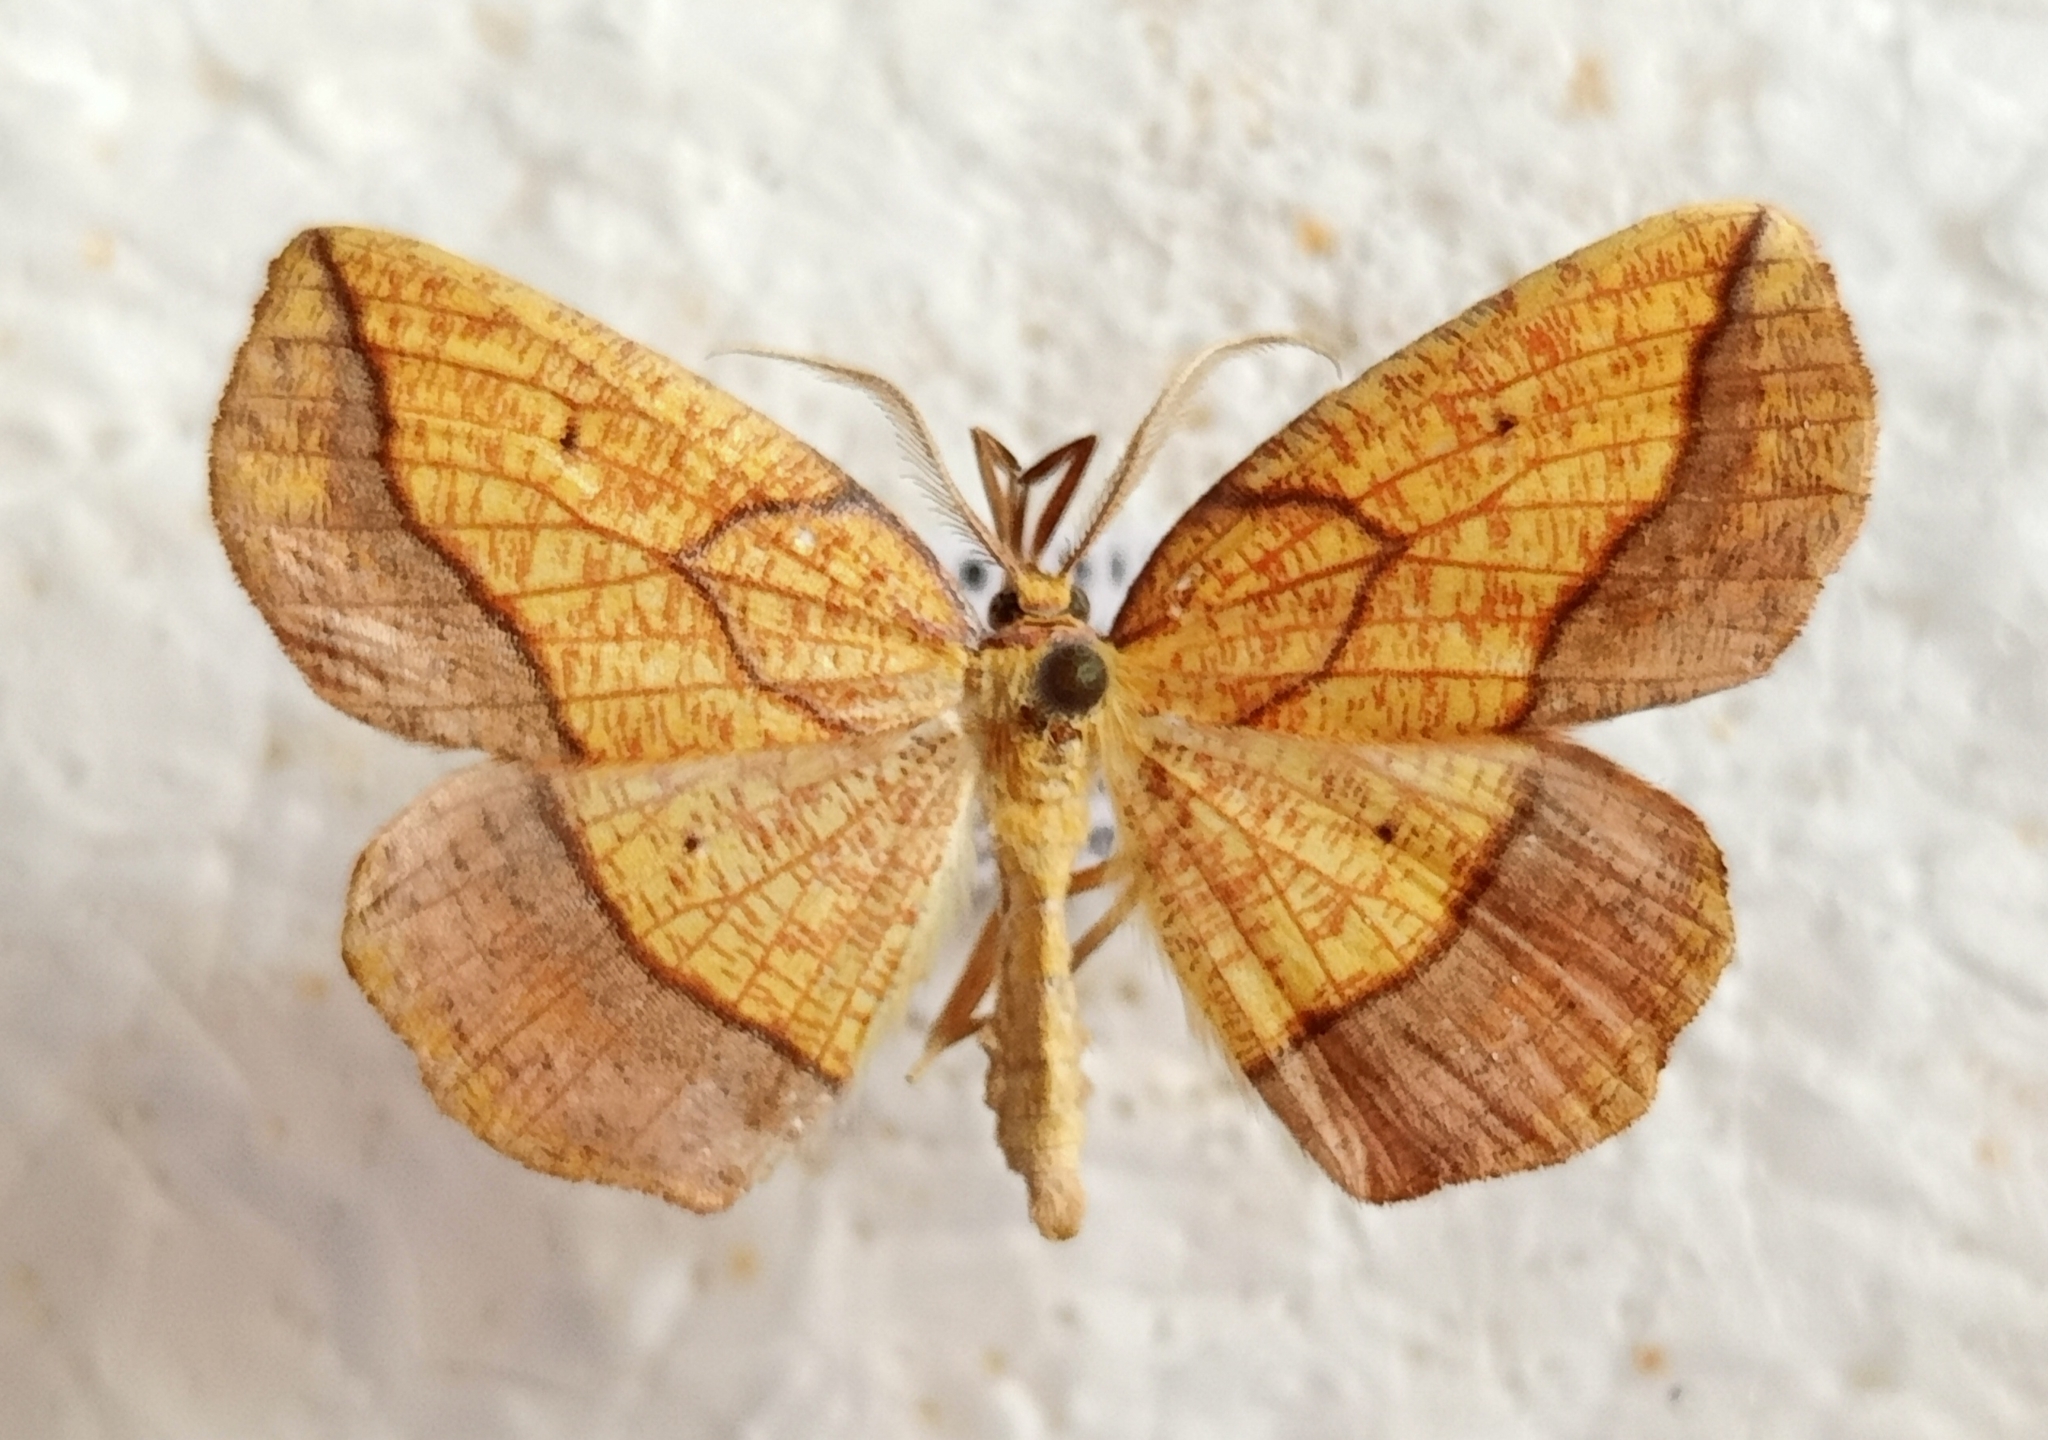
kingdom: Animalia
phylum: Arthropoda
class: Insecta
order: Lepidoptera
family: Geometridae
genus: Epione
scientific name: Epione repandaria
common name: Bordered beauty
